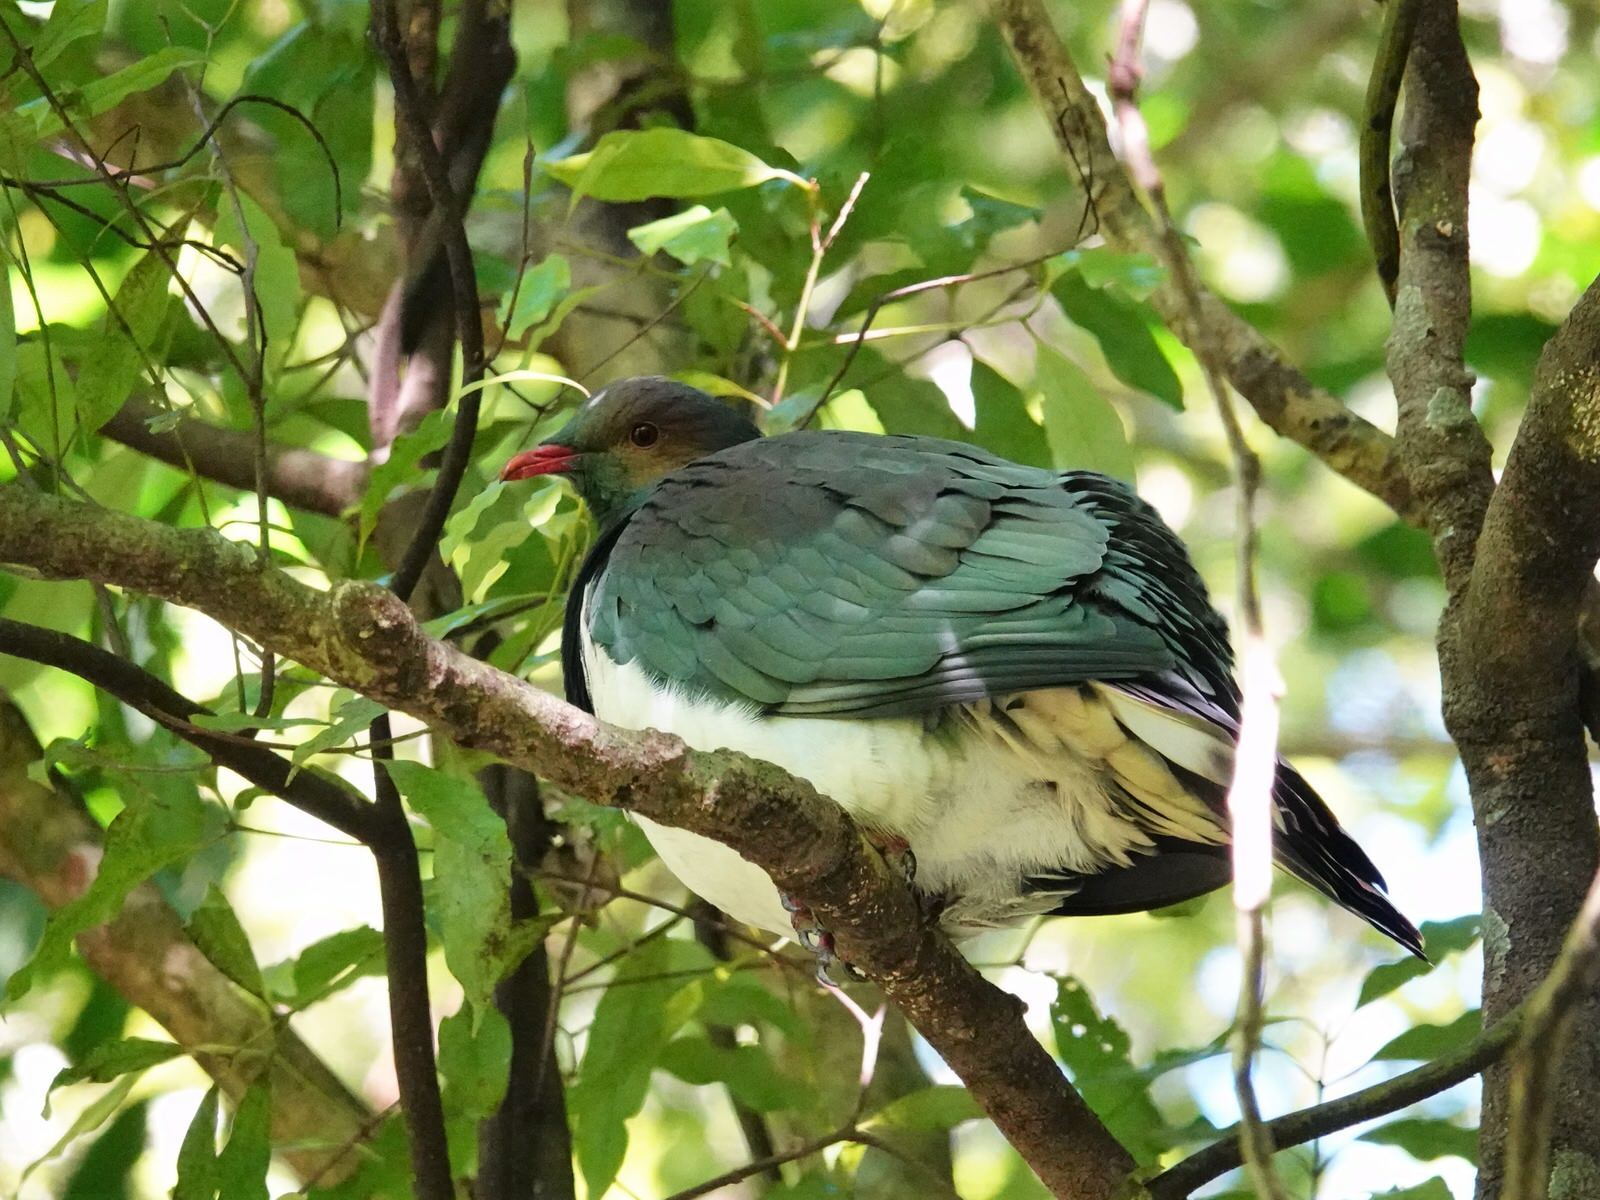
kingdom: Animalia
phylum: Chordata
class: Aves
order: Columbiformes
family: Columbidae
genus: Hemiphaga
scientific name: Hemiphaga novaeseelandiae
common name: New zealand pigeon
